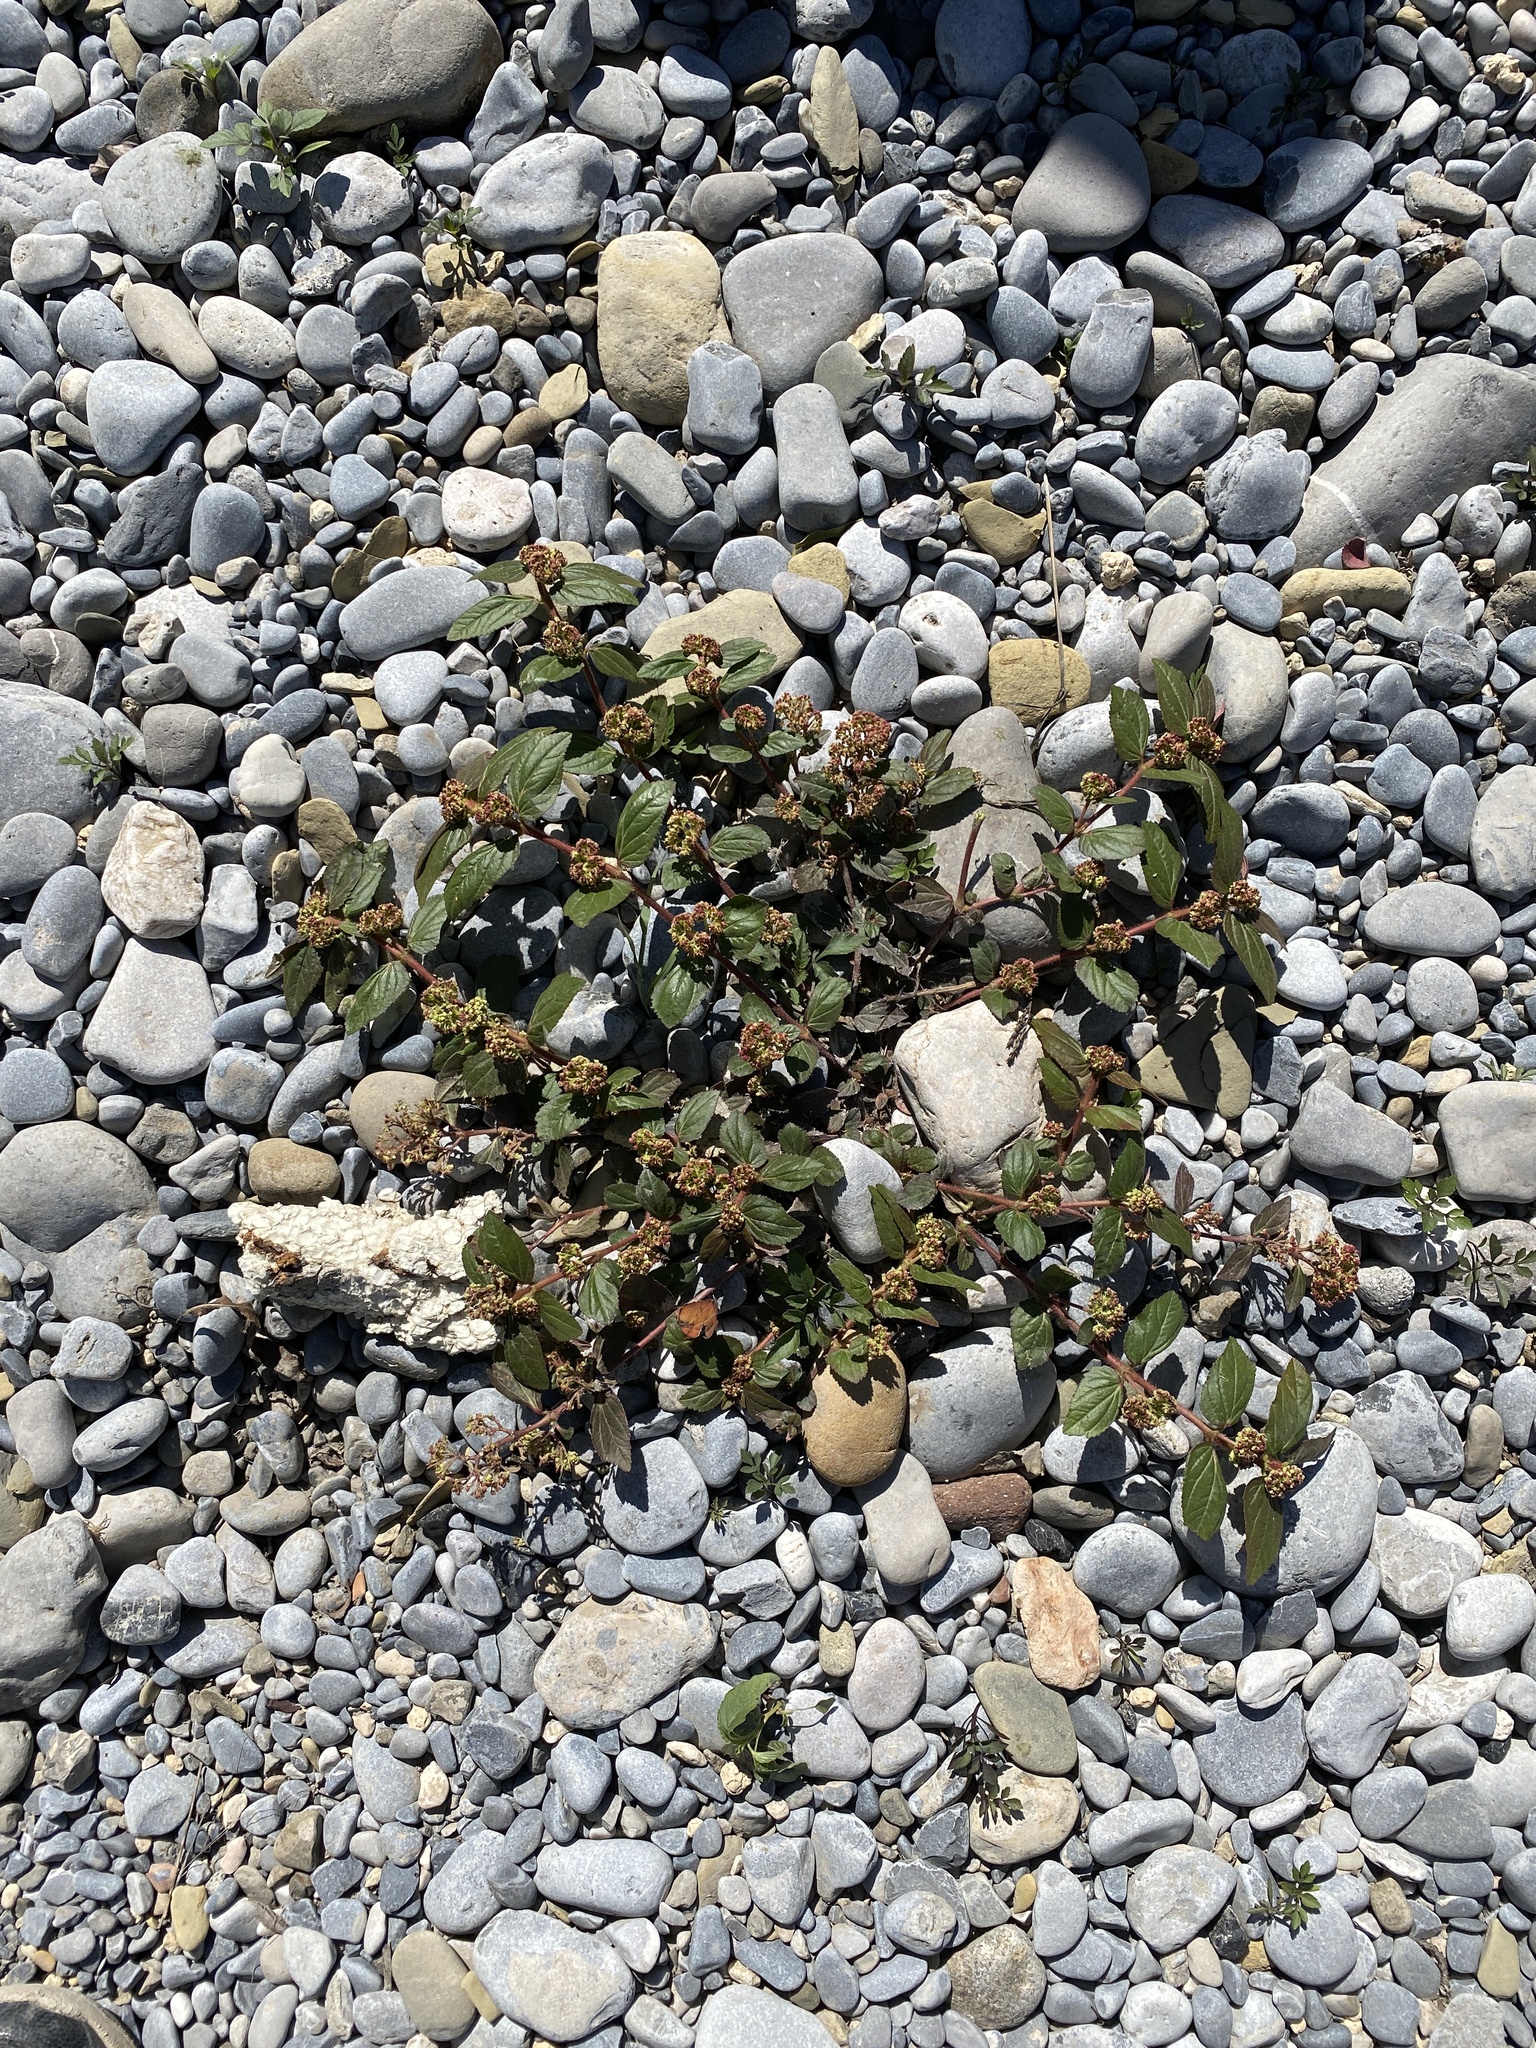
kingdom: Plantae
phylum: Tracheophyta
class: Magnoliopsida
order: Malpighiales
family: Euphorbiaceae
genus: Euphorbia
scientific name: Euphorbia hirta
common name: Pillpod sandmat
